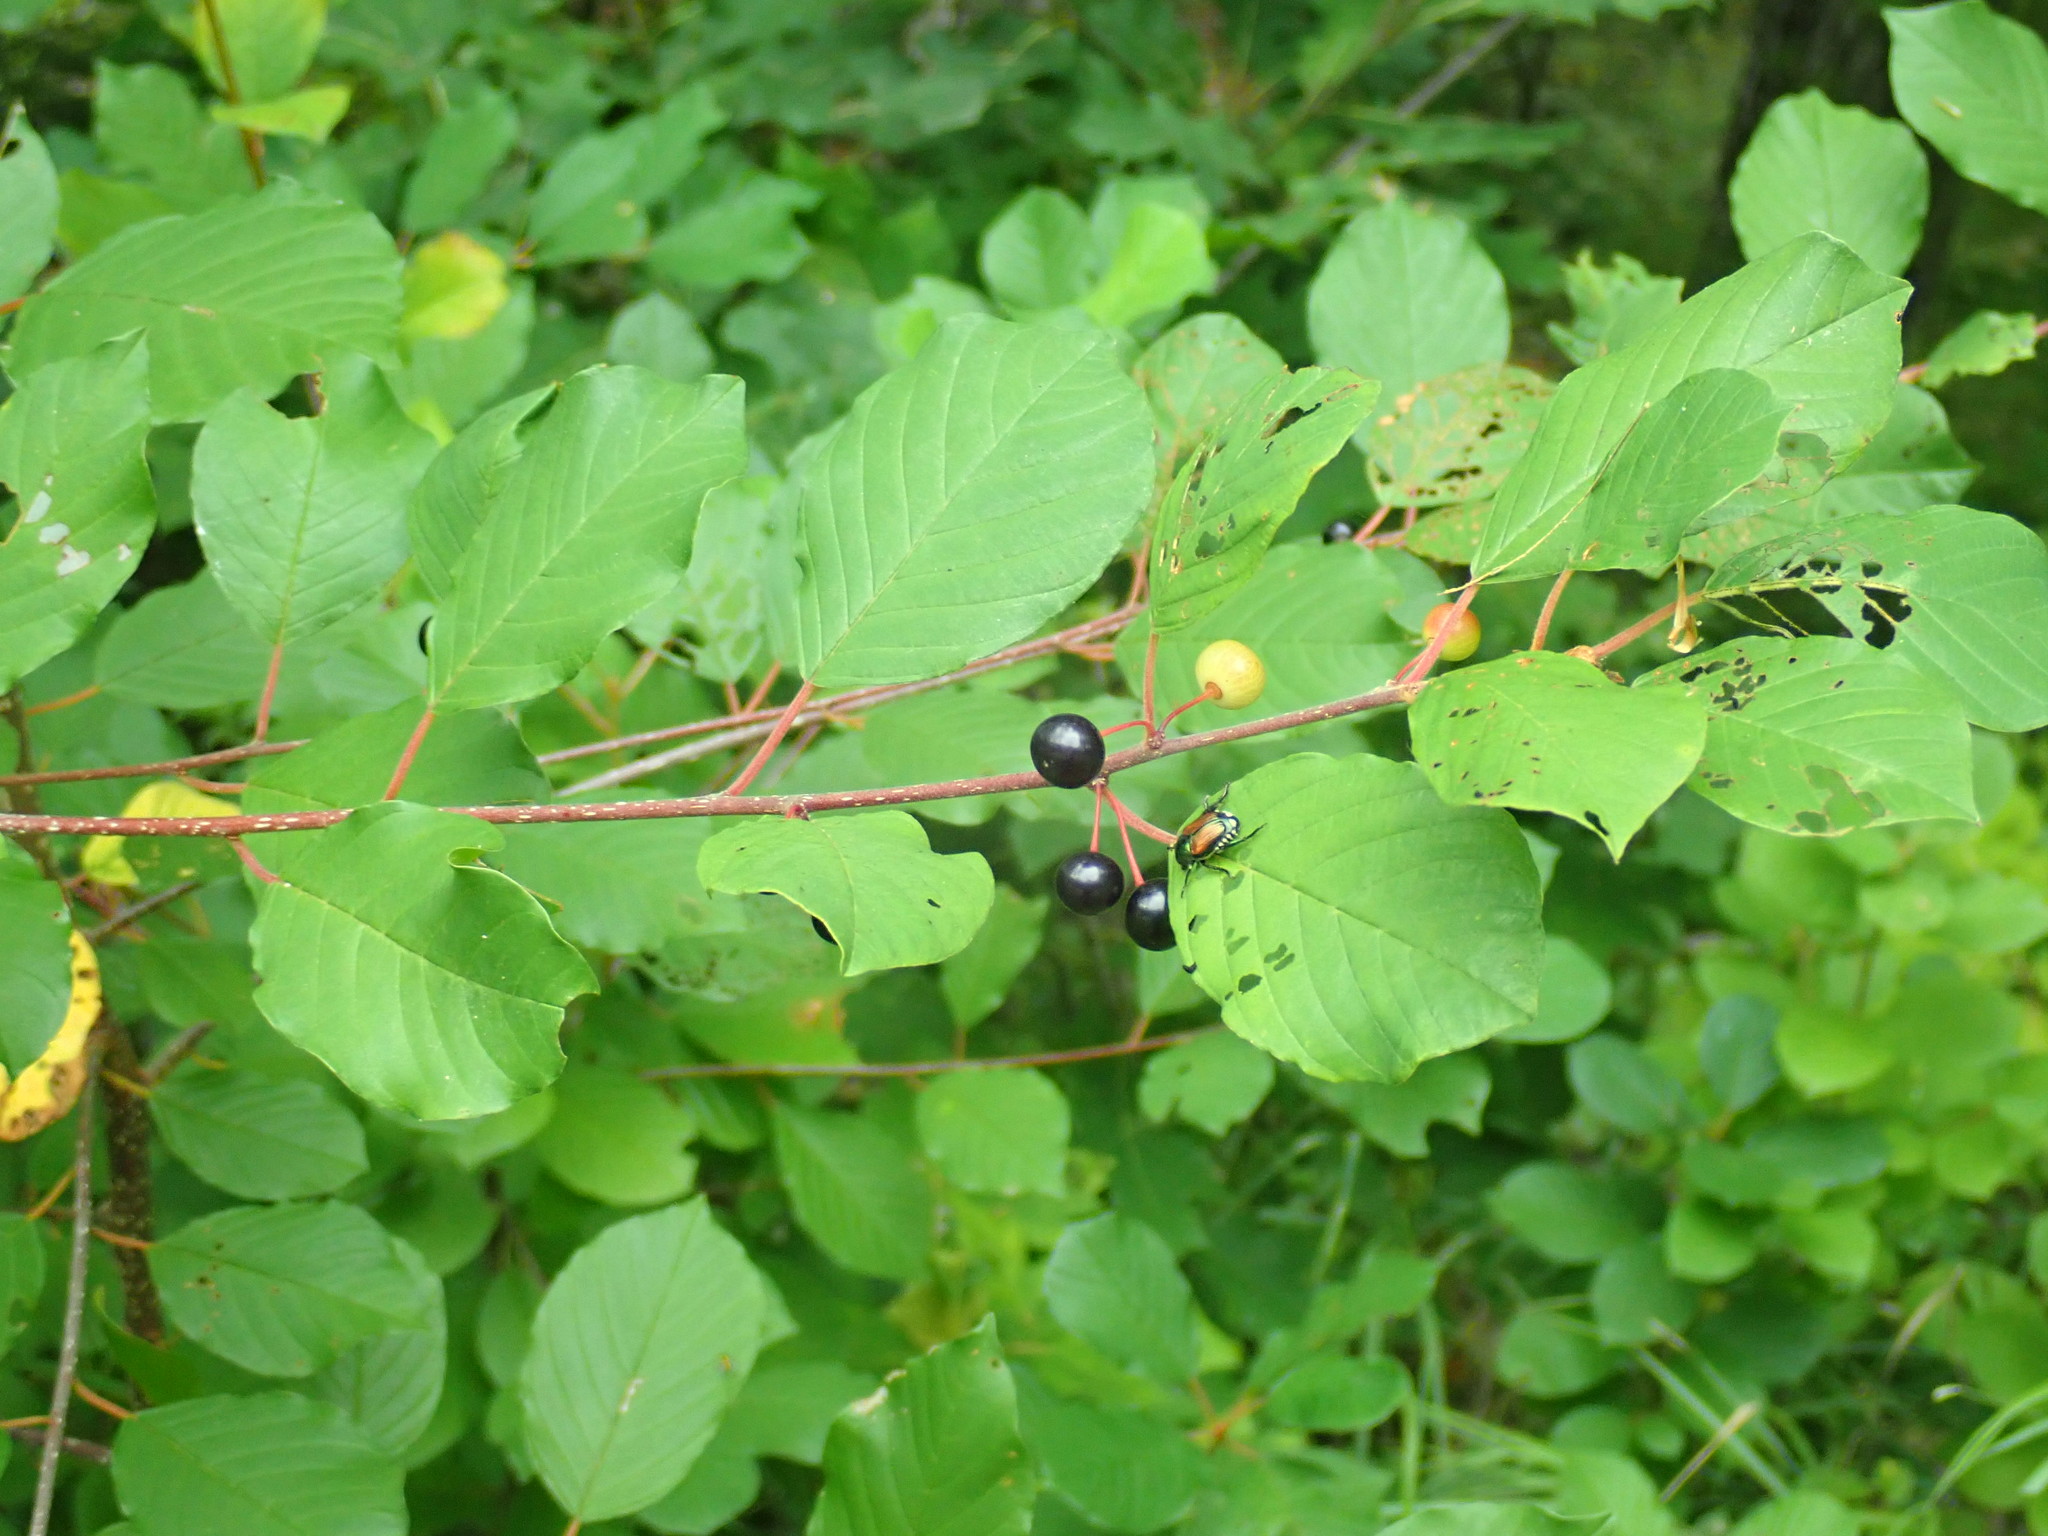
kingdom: Plantae
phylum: Tracheophyta
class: Magnoliopsida
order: Rosales
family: Rhamnaceae
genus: Frangula
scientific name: Frangula alnus
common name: Alder buckthorn
